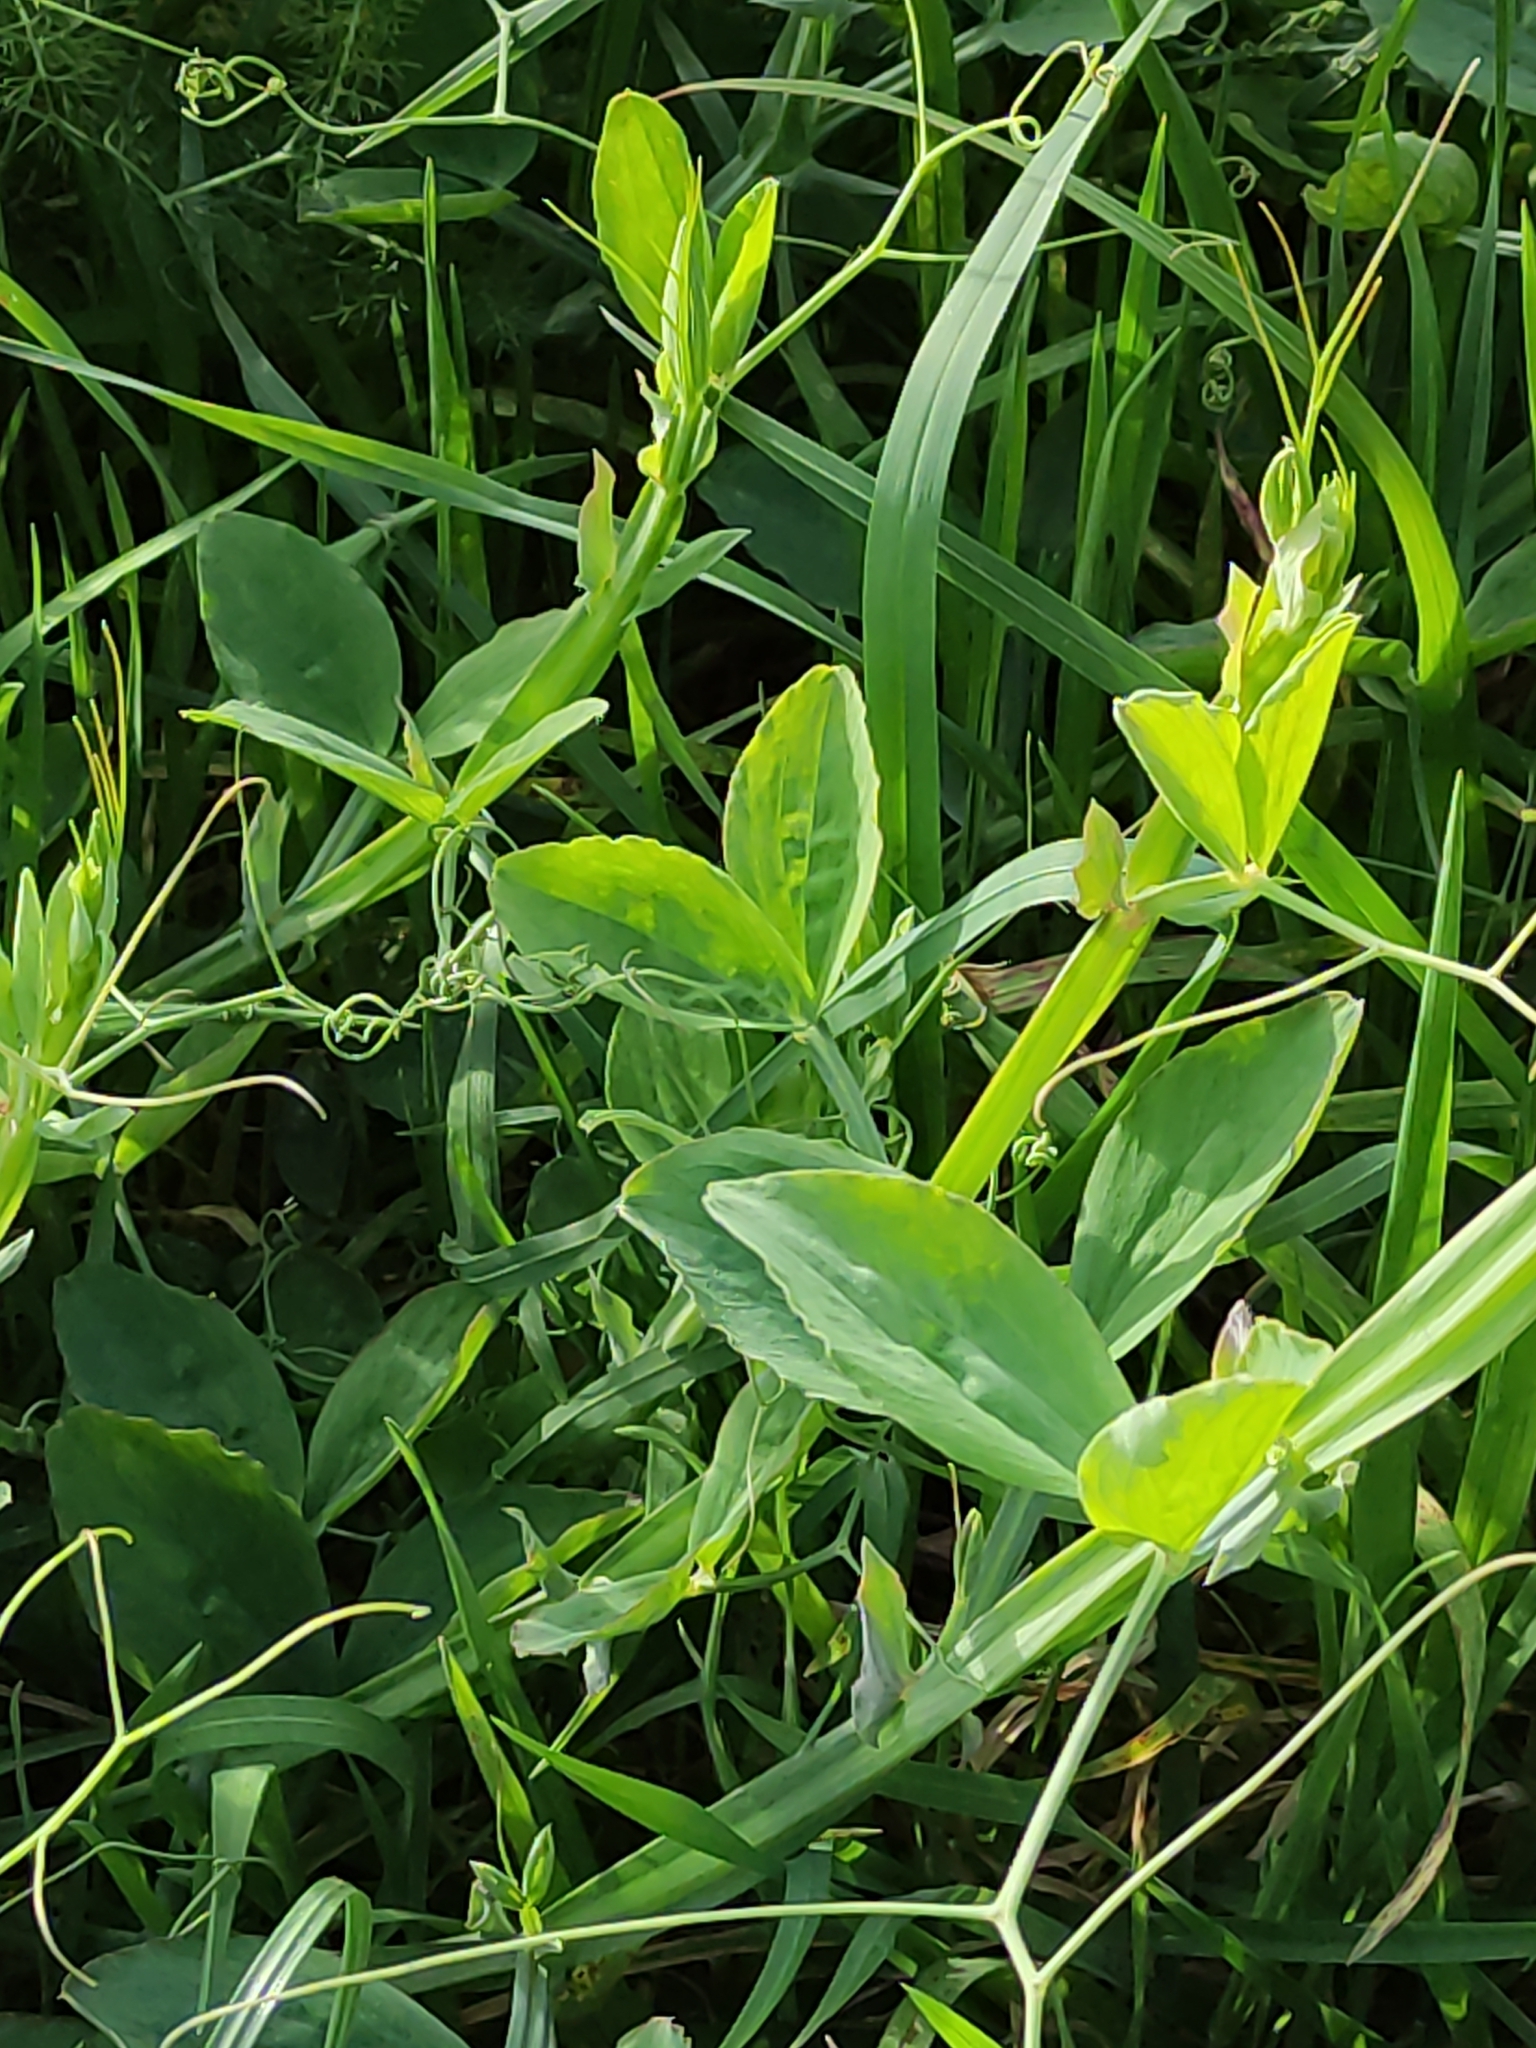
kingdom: Plantae
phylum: Tracheophyta
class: Magnoliopsida
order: Fabales
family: Fabaceae
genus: Lathyrus
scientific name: Lathyrus odoratus
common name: Sweet pea
